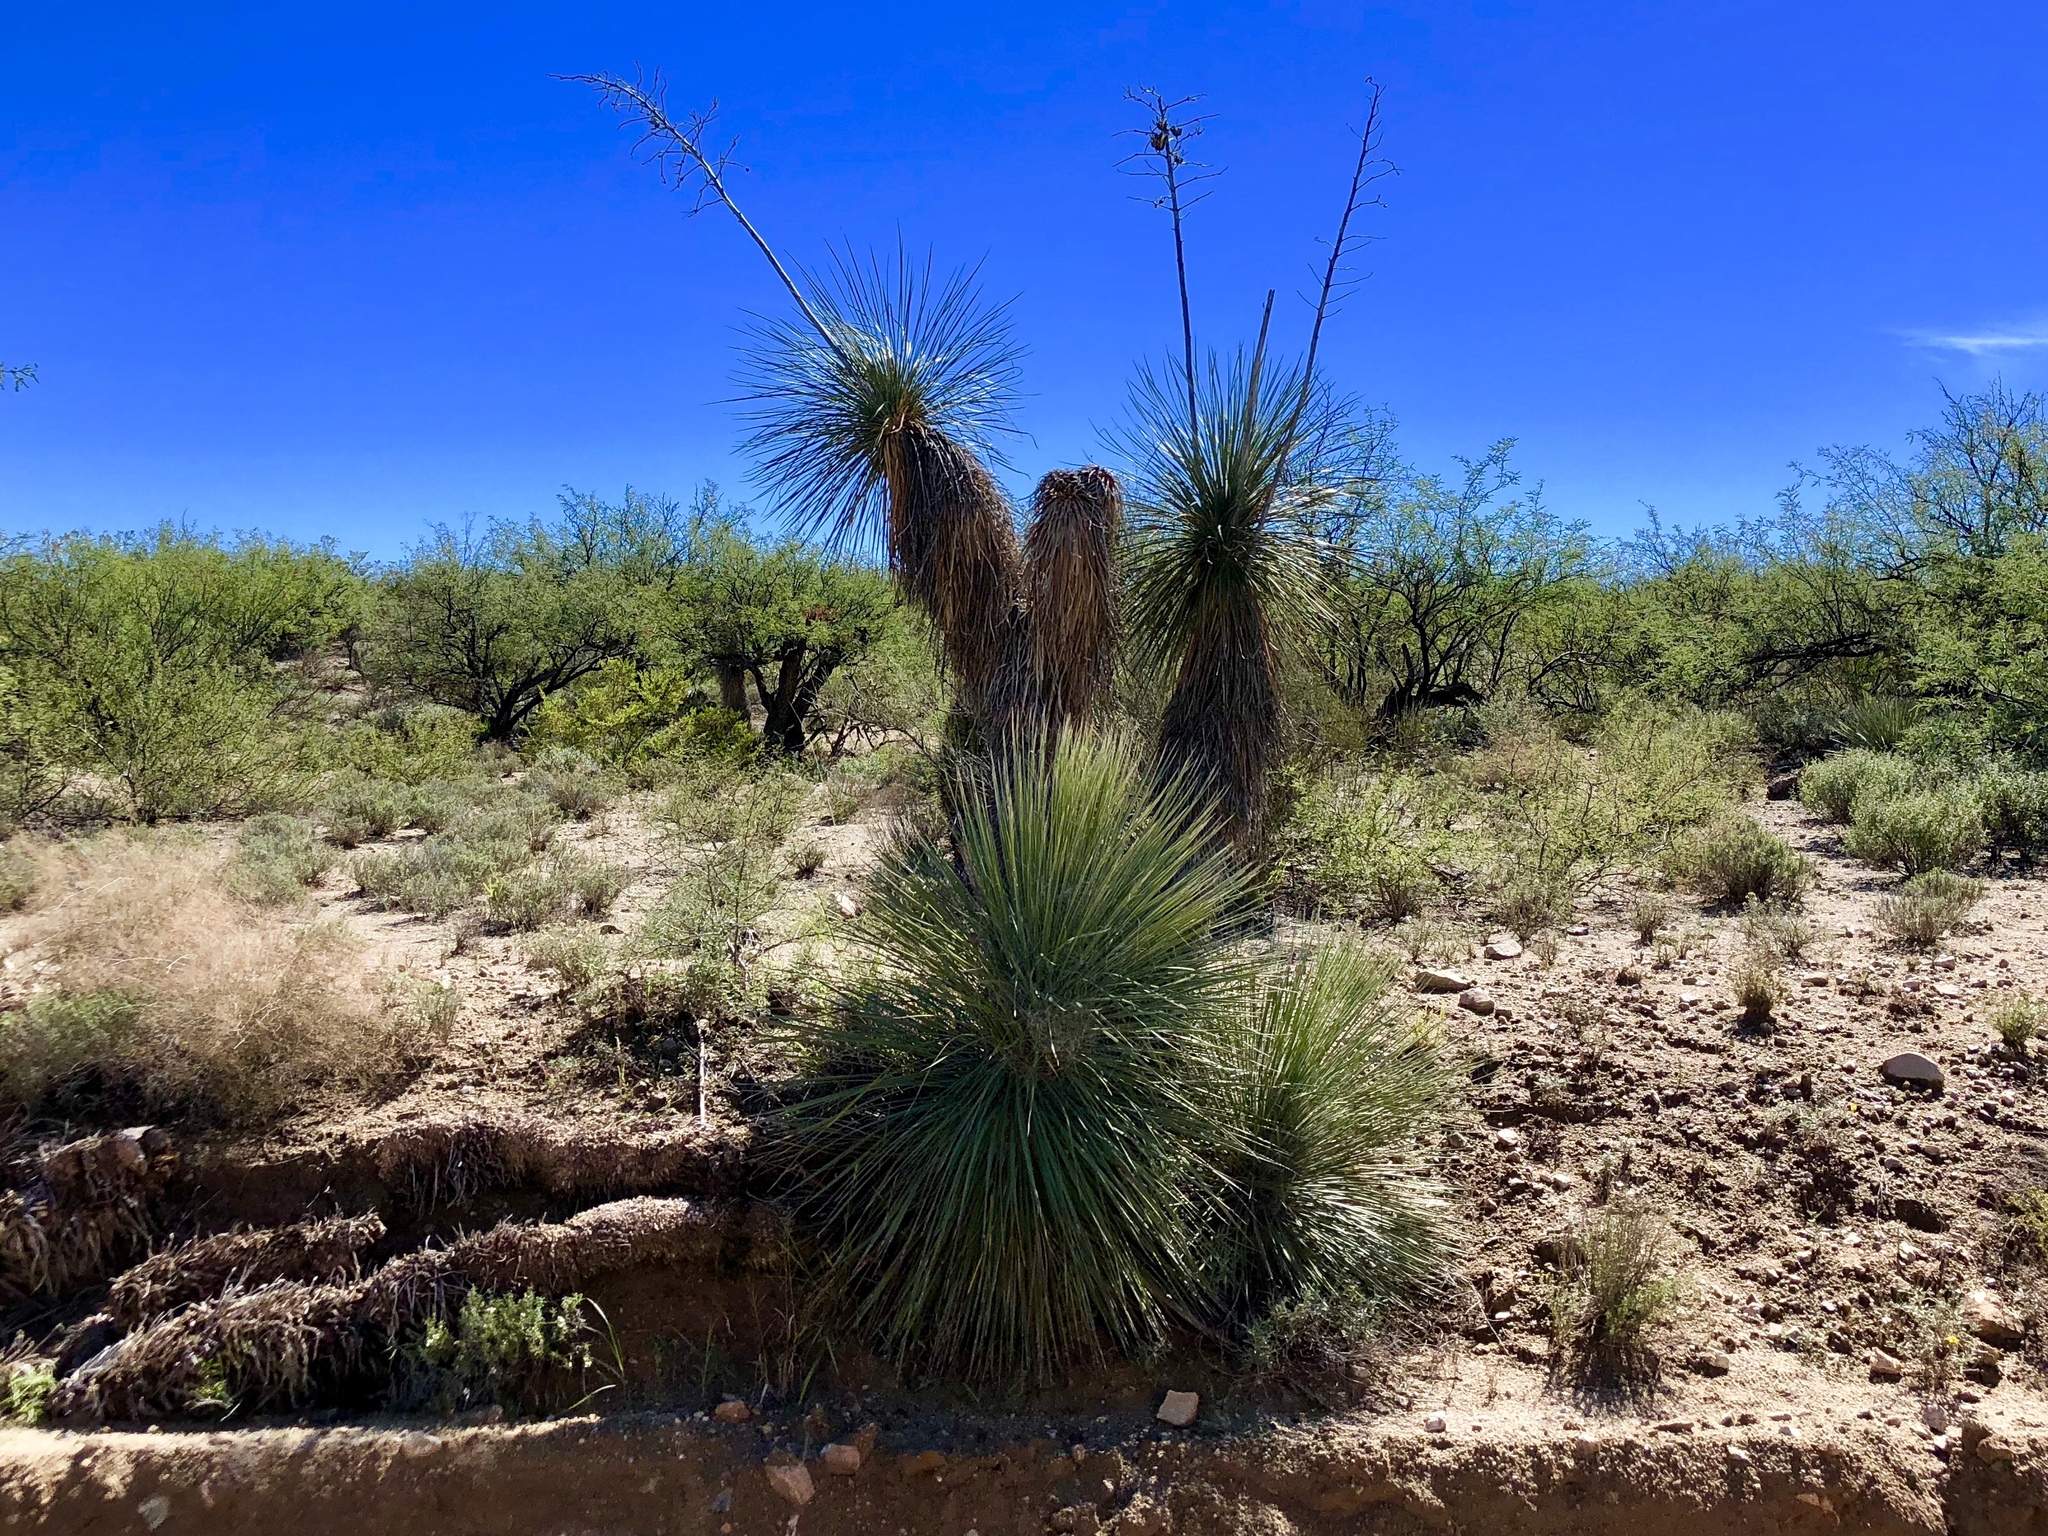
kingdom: Plantae
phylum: Tracheophyta
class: Liliopsida
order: Asparagales
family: Asparagaceae
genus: Yucca
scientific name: Yucca elata
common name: Palmella
